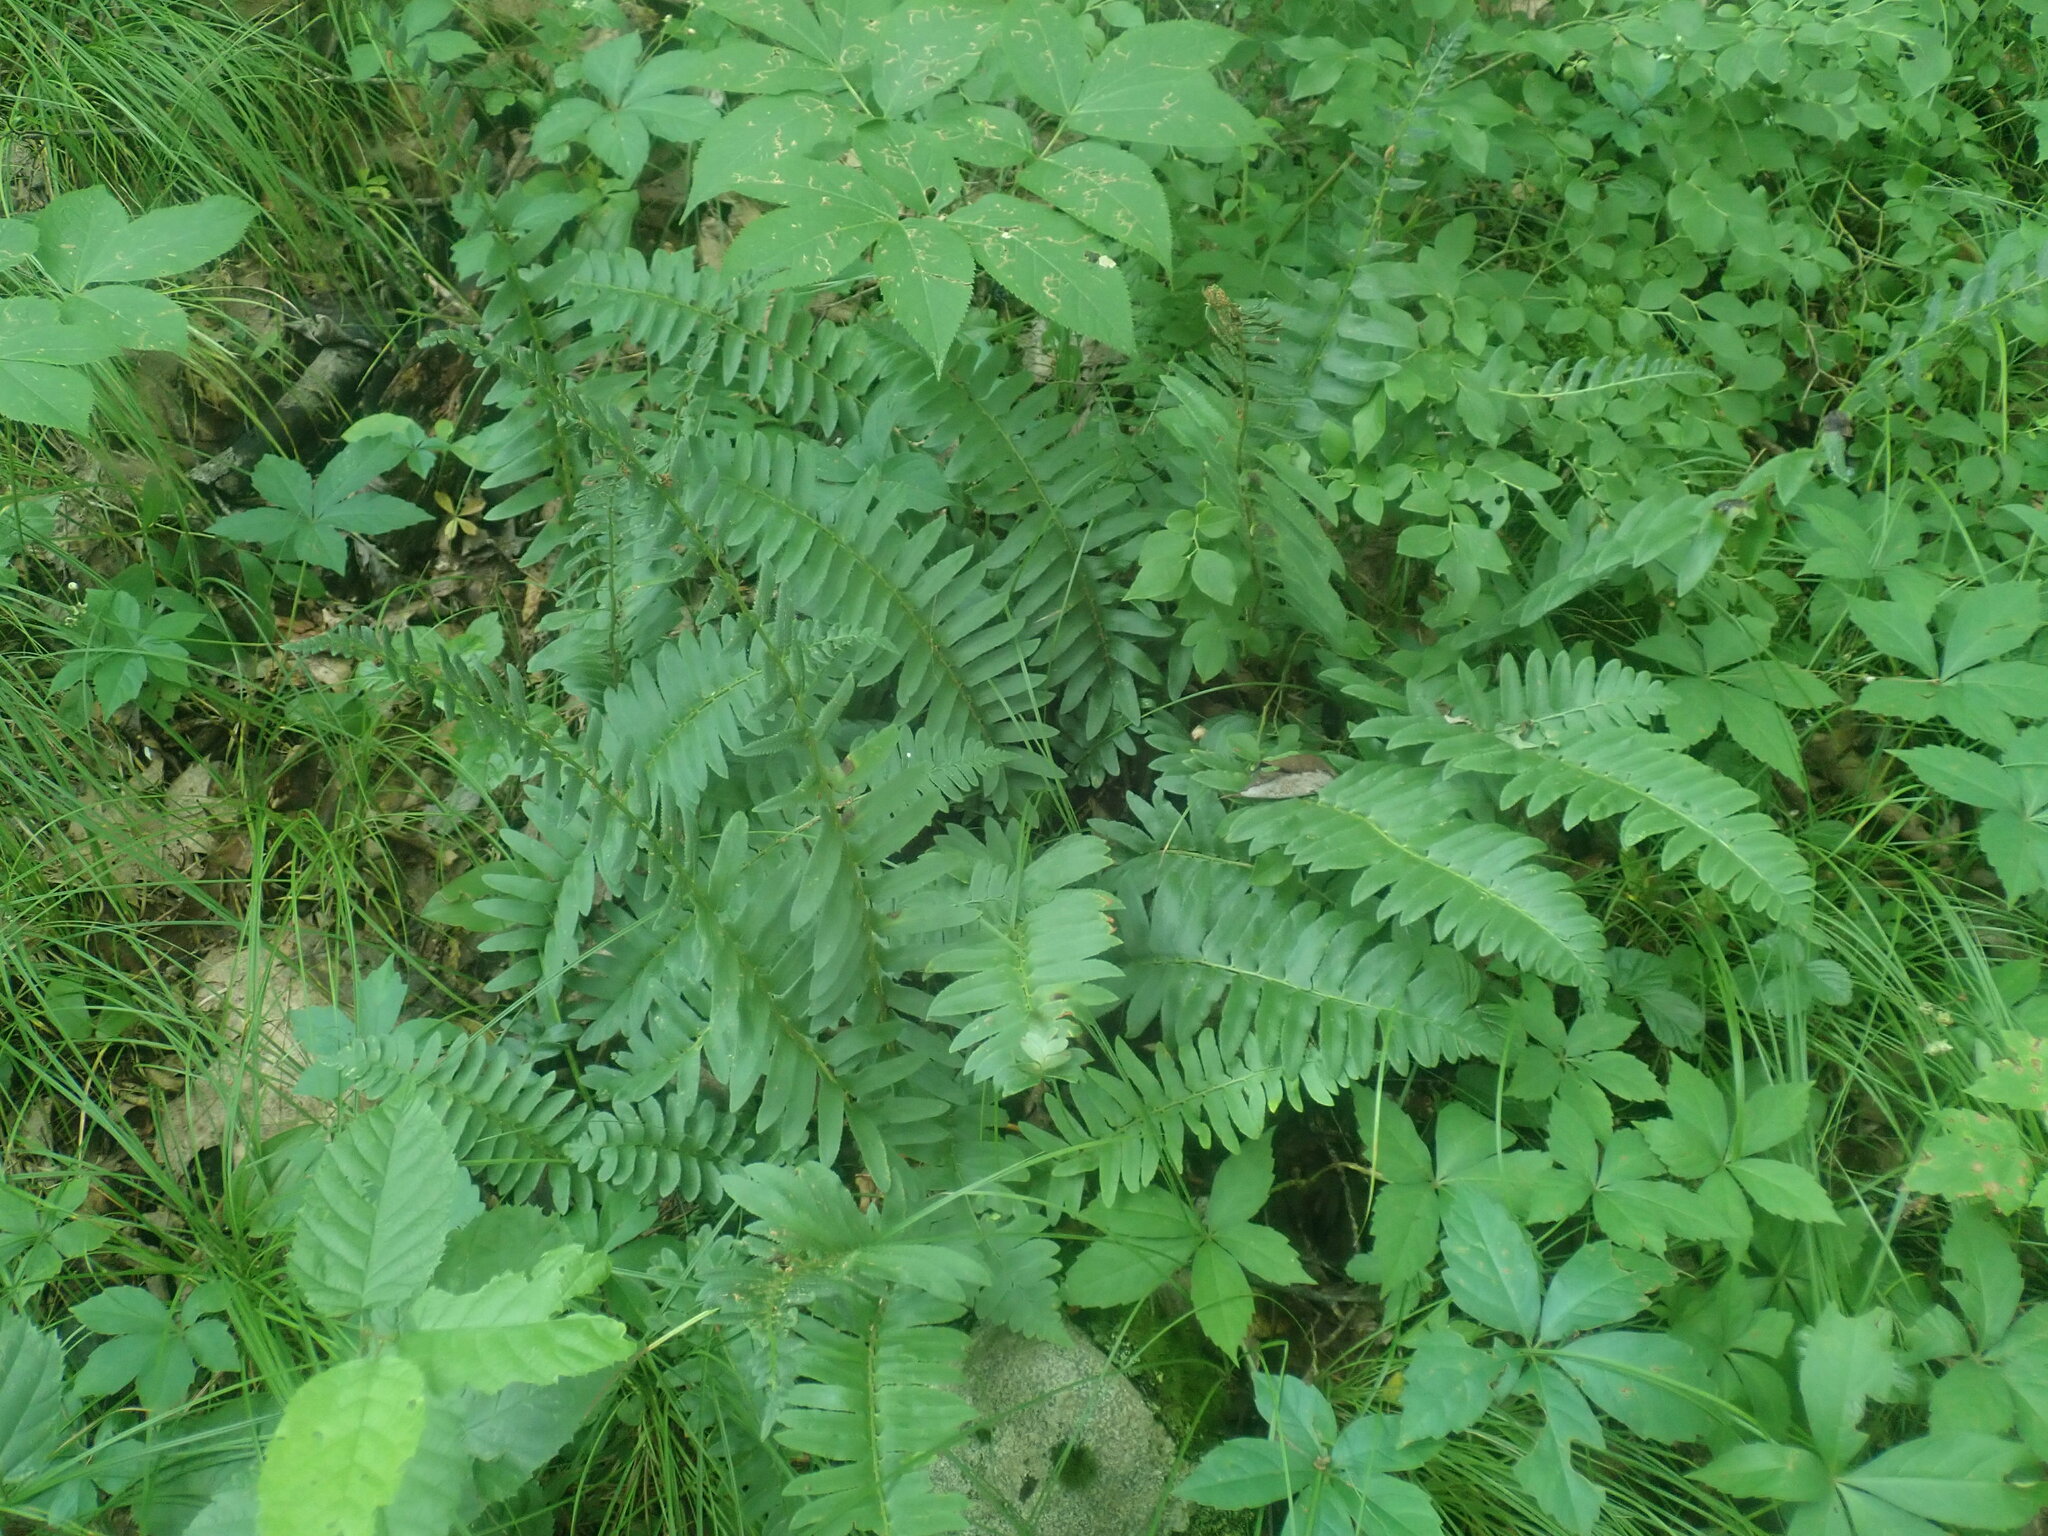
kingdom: Plantae
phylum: Tracheophyta
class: Polypodiopsida
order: Polypodiales
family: Dryopteridaceae
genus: Polystichum
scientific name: Polystichum acrostichoides
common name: Christmas fern
